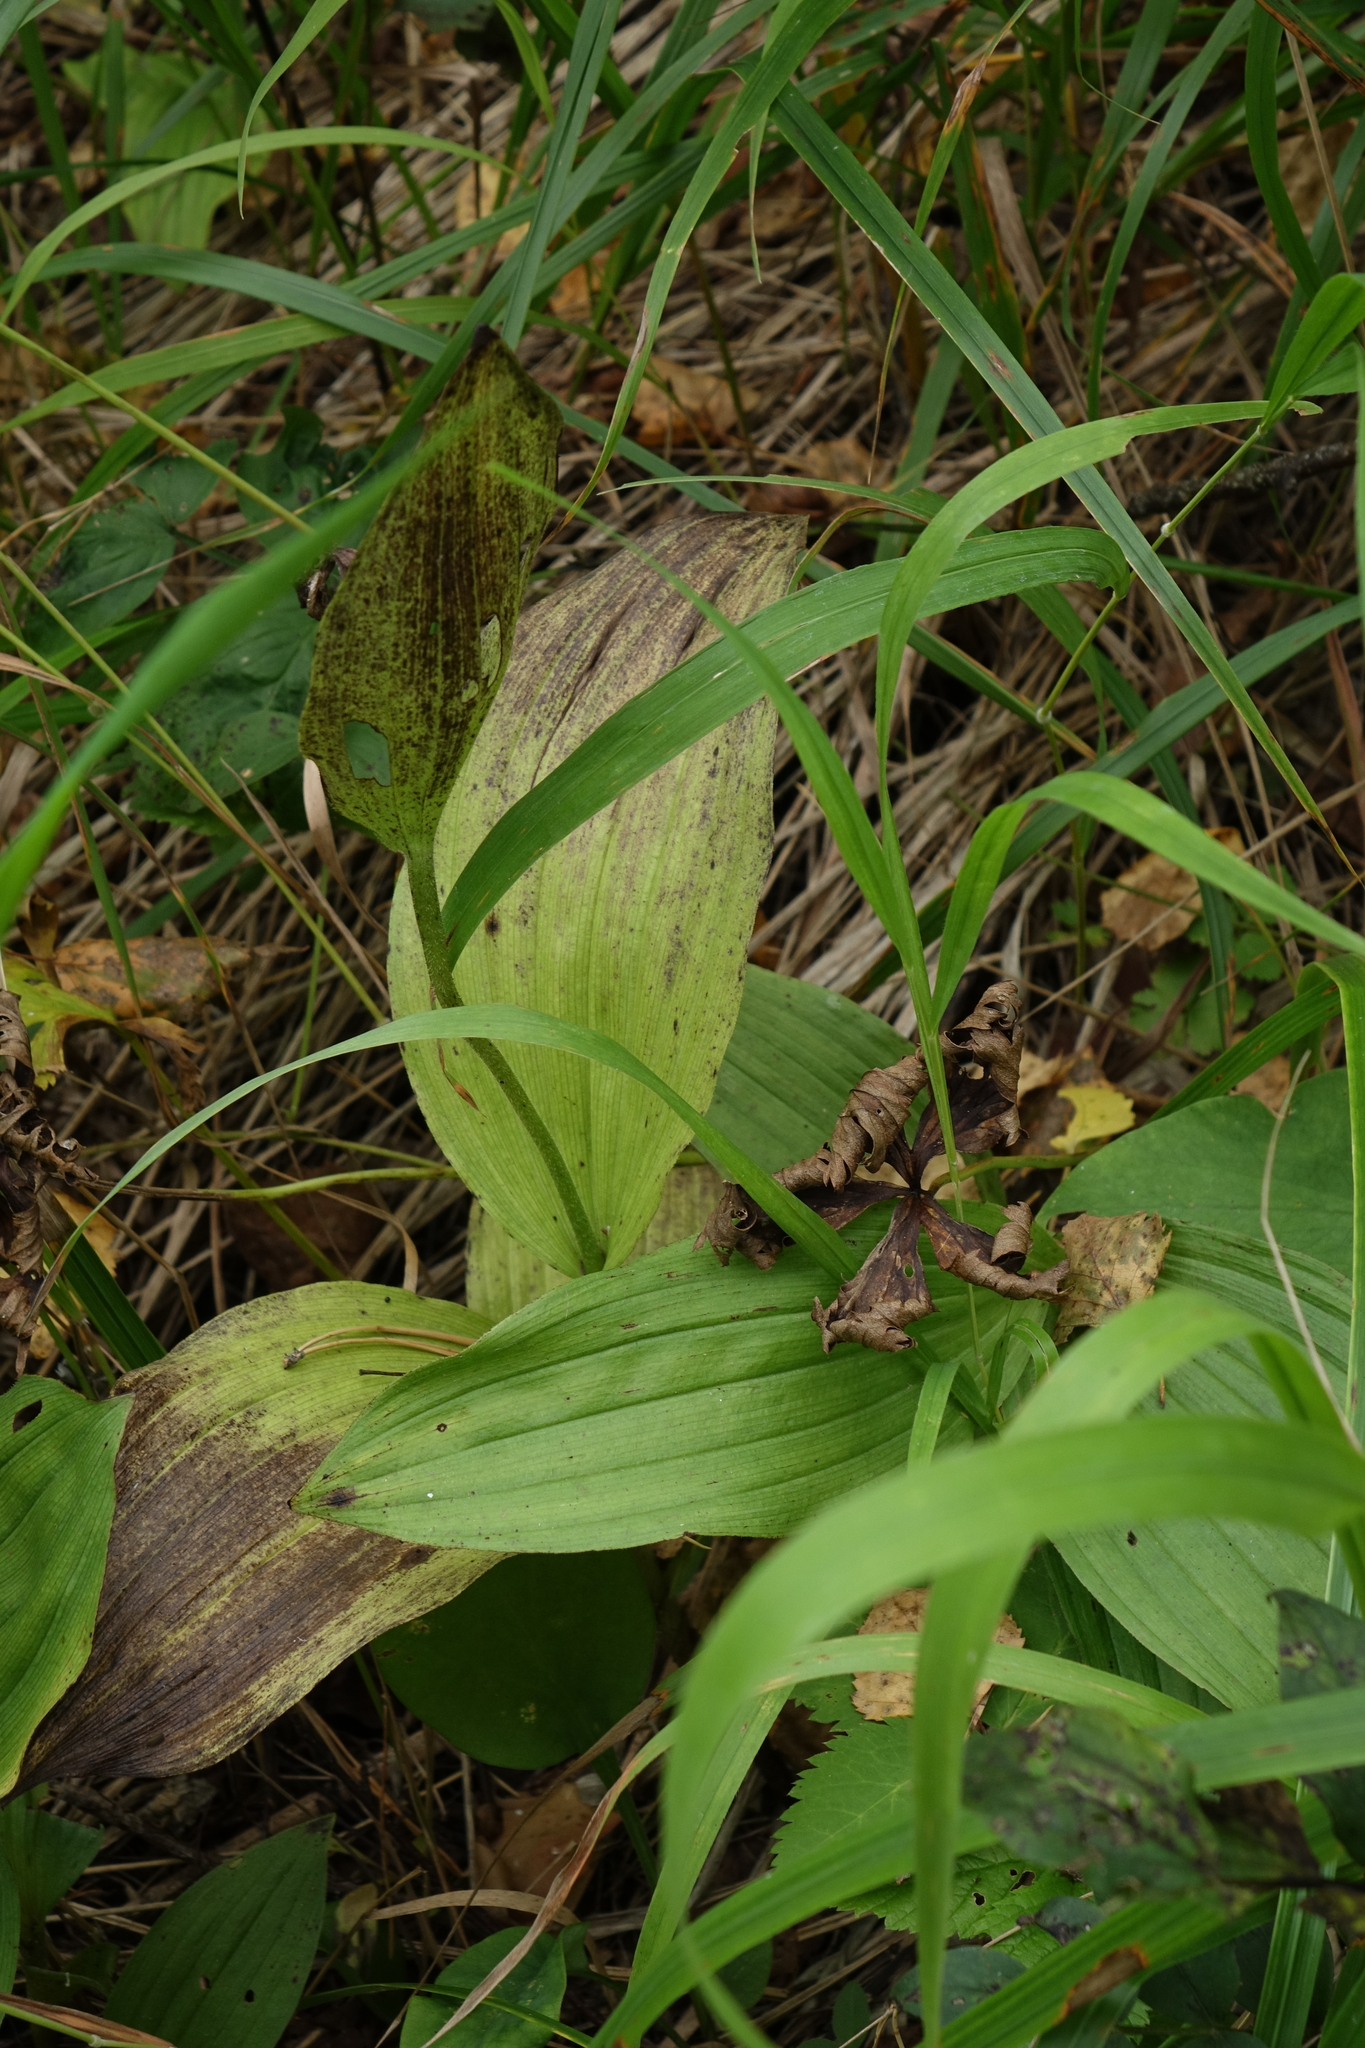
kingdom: Plantae
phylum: Tracheophyta
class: Liliopsida
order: Asparagales
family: Orchidaceae
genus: Cypripedium
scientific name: Cypripedium calceolus
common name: Lady's-slipper
